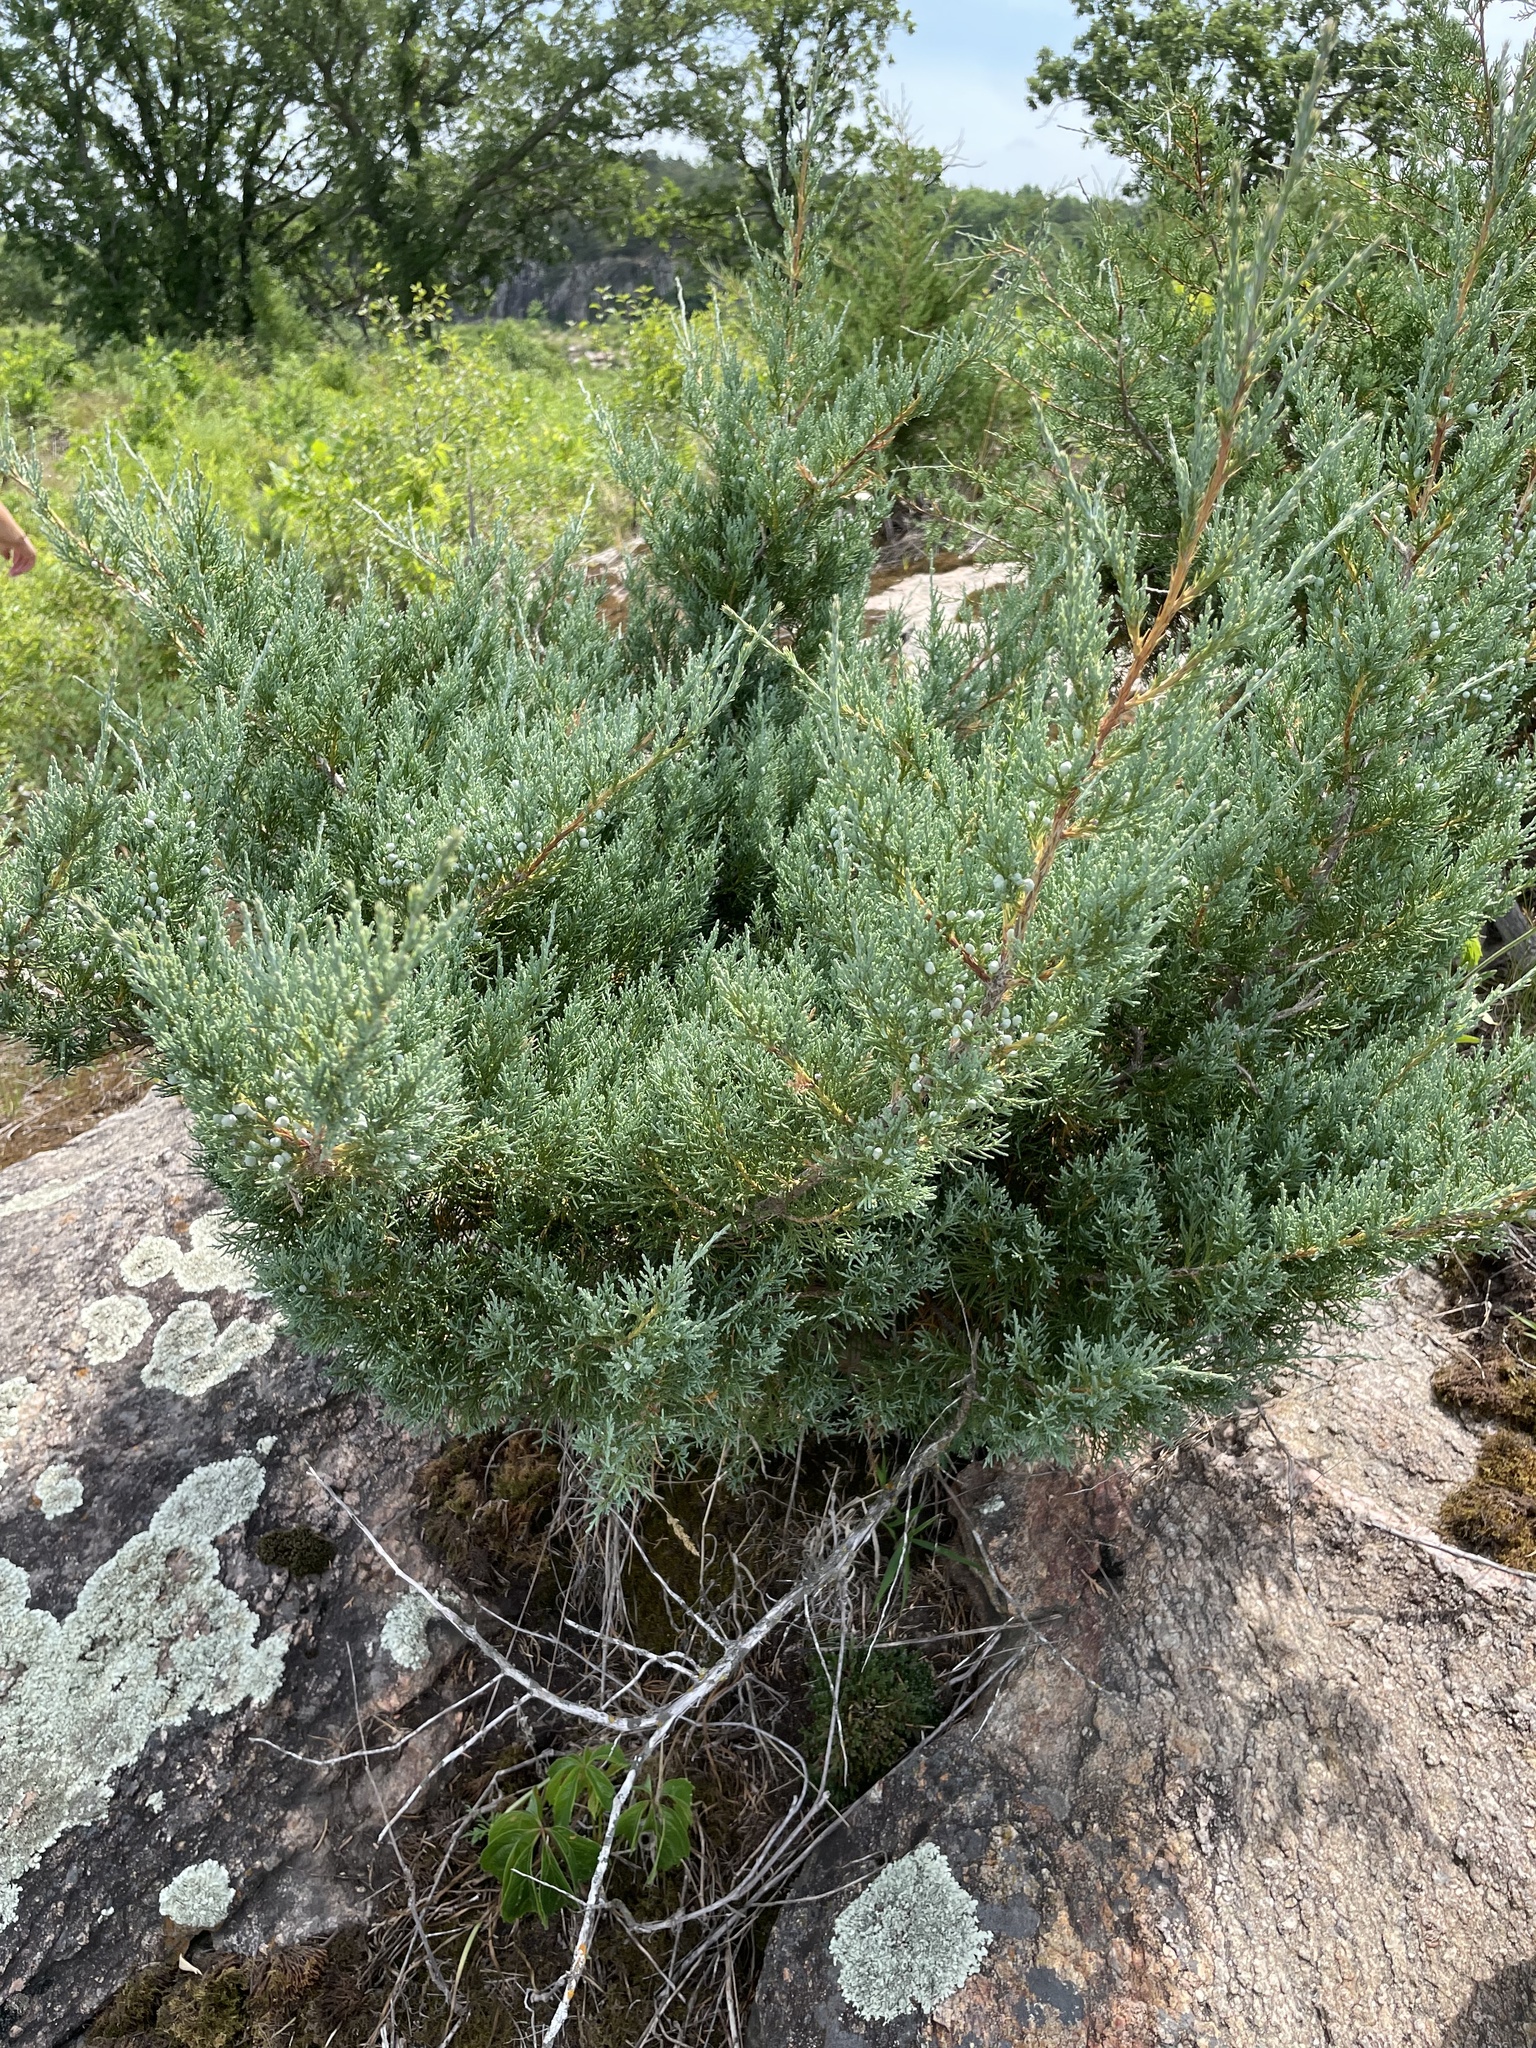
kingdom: Plantae
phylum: Tracheophyta
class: Pinopsida
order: Pinales
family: Cupressaceae
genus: Juniperus
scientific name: Juniperus virginiana
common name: Red juniper
